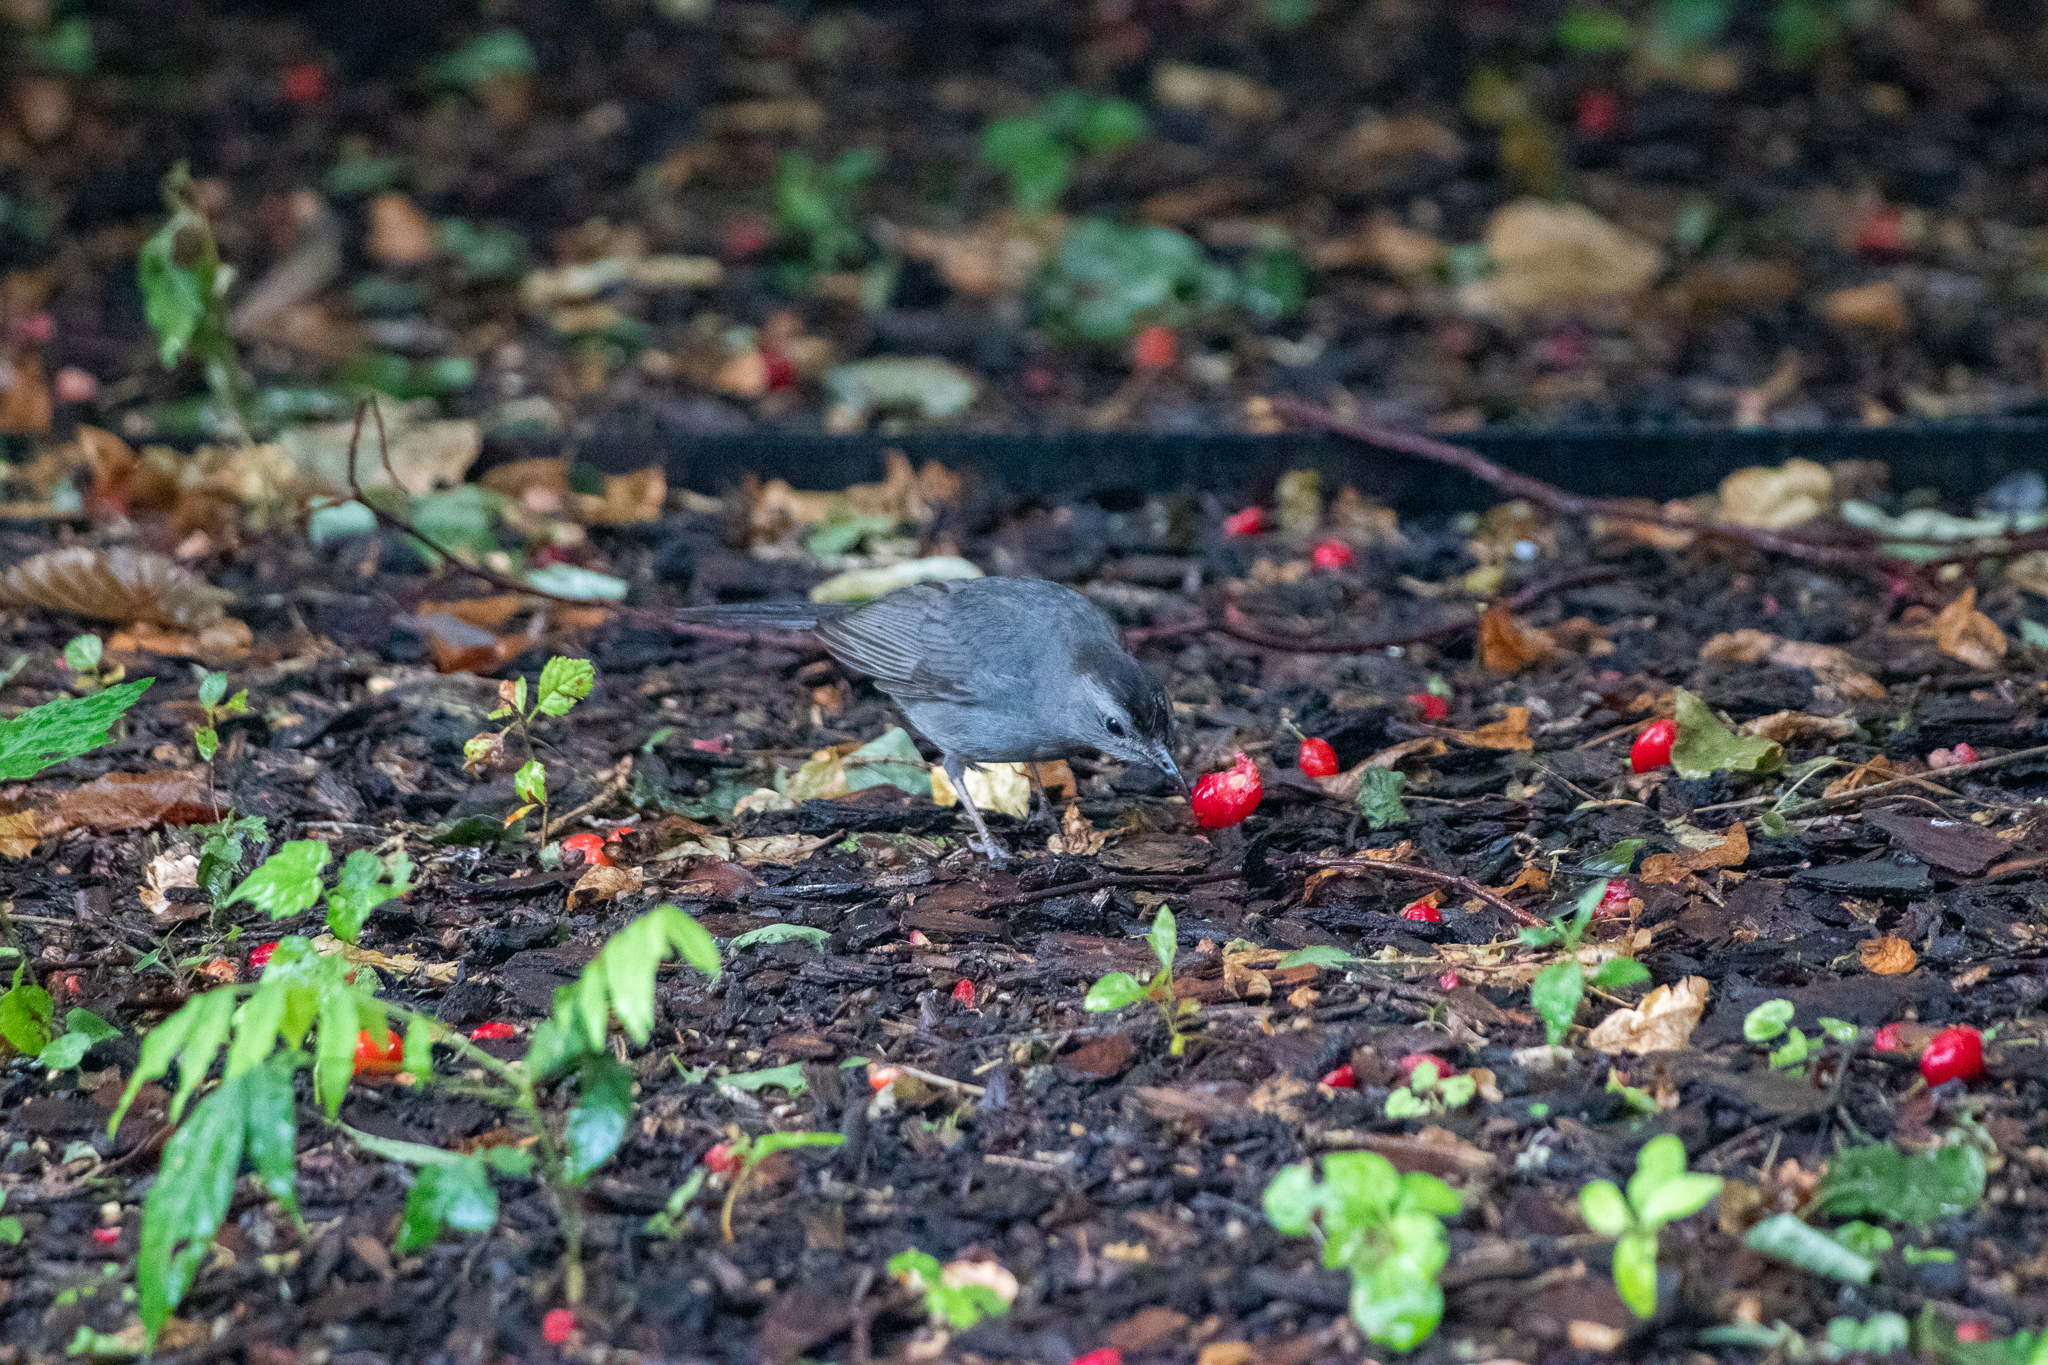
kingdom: Animalia
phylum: Chordata
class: Aves
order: Passeriformes
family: Mimidae
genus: Dumetella
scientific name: Dumetella carolinensis
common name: Gray catbird
